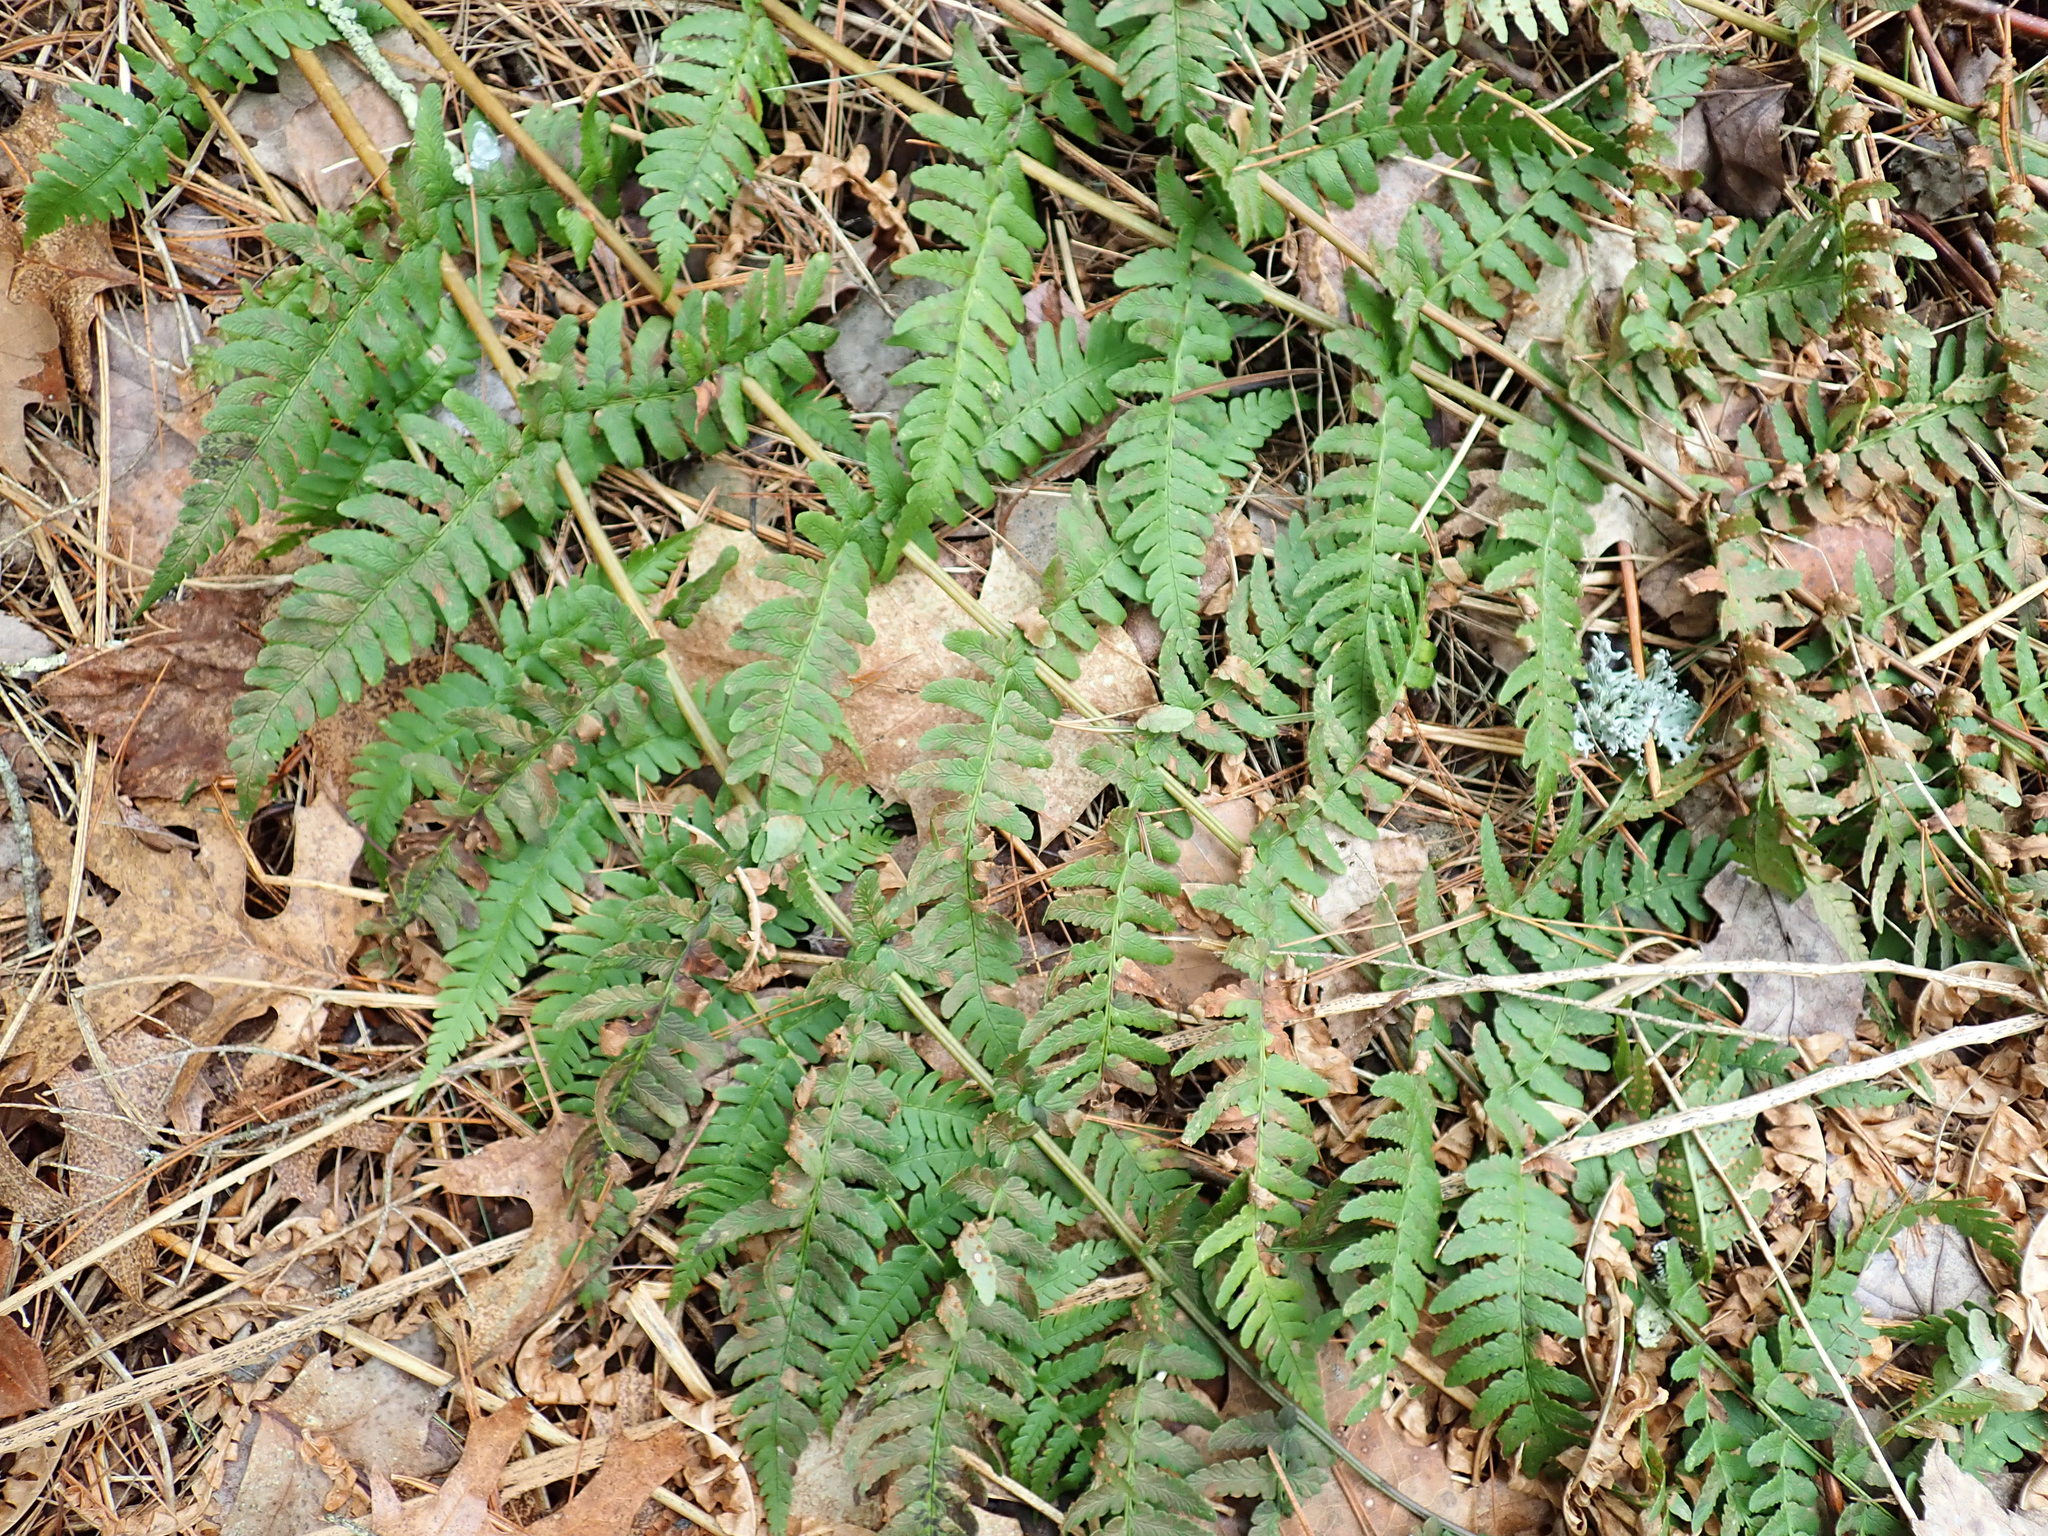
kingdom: Plantae
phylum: Tracheophyta
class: Polypodiopsida
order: Polypodiales
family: Dryopteridaceae
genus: Dryopteris
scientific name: Dryopteris marginalis
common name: Marginal wood fern
